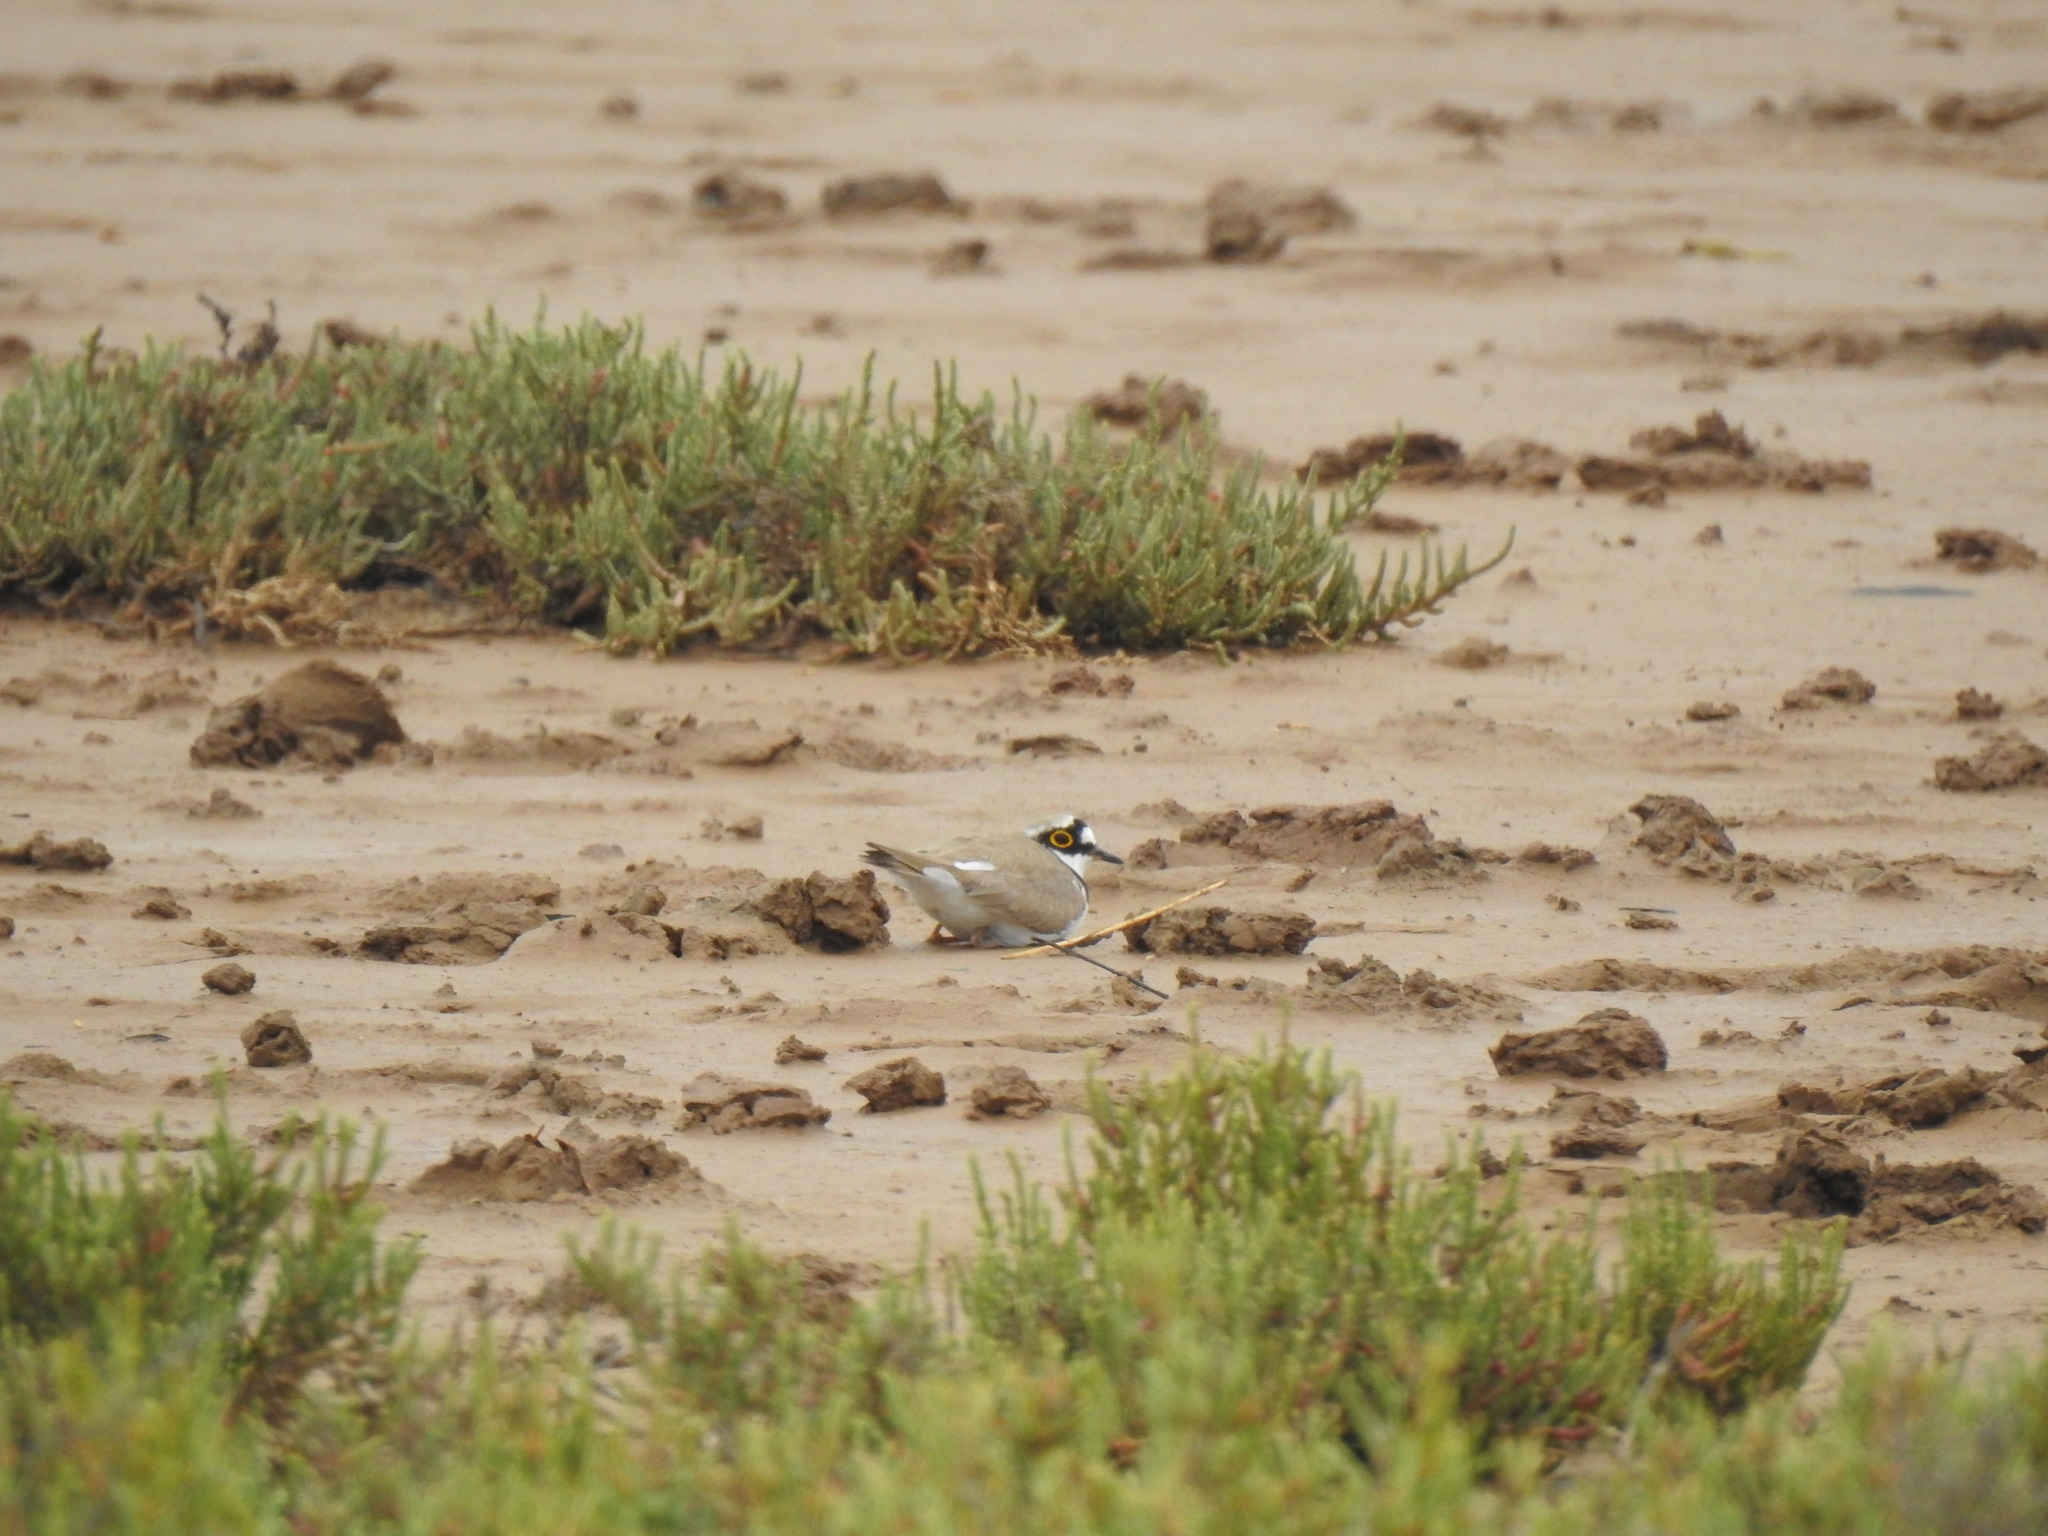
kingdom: Animalia
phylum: Chordata
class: Aves
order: Charadriiformes
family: Charadriidae
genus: Charadrius
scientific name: Charadrius dubius
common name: Little ringed plover
